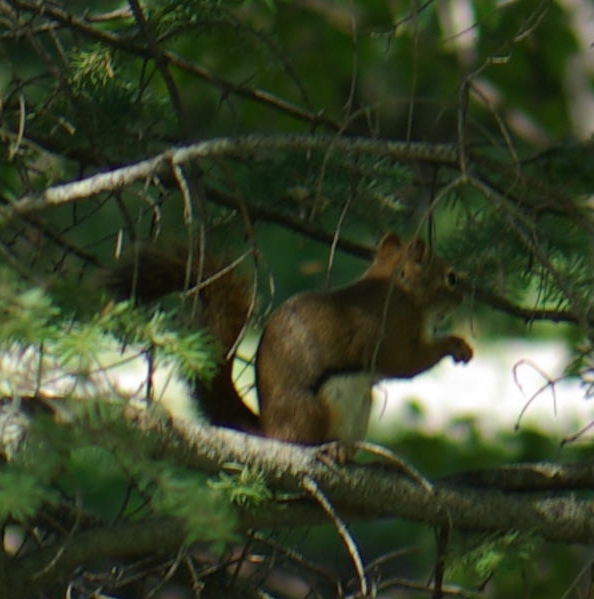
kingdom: Animalia
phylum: Chordata
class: Mammalia
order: Rodentia
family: Sciuridae
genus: Tamiasciurus
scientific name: Tamiasciurus hudsonicus
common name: Red squirrel
